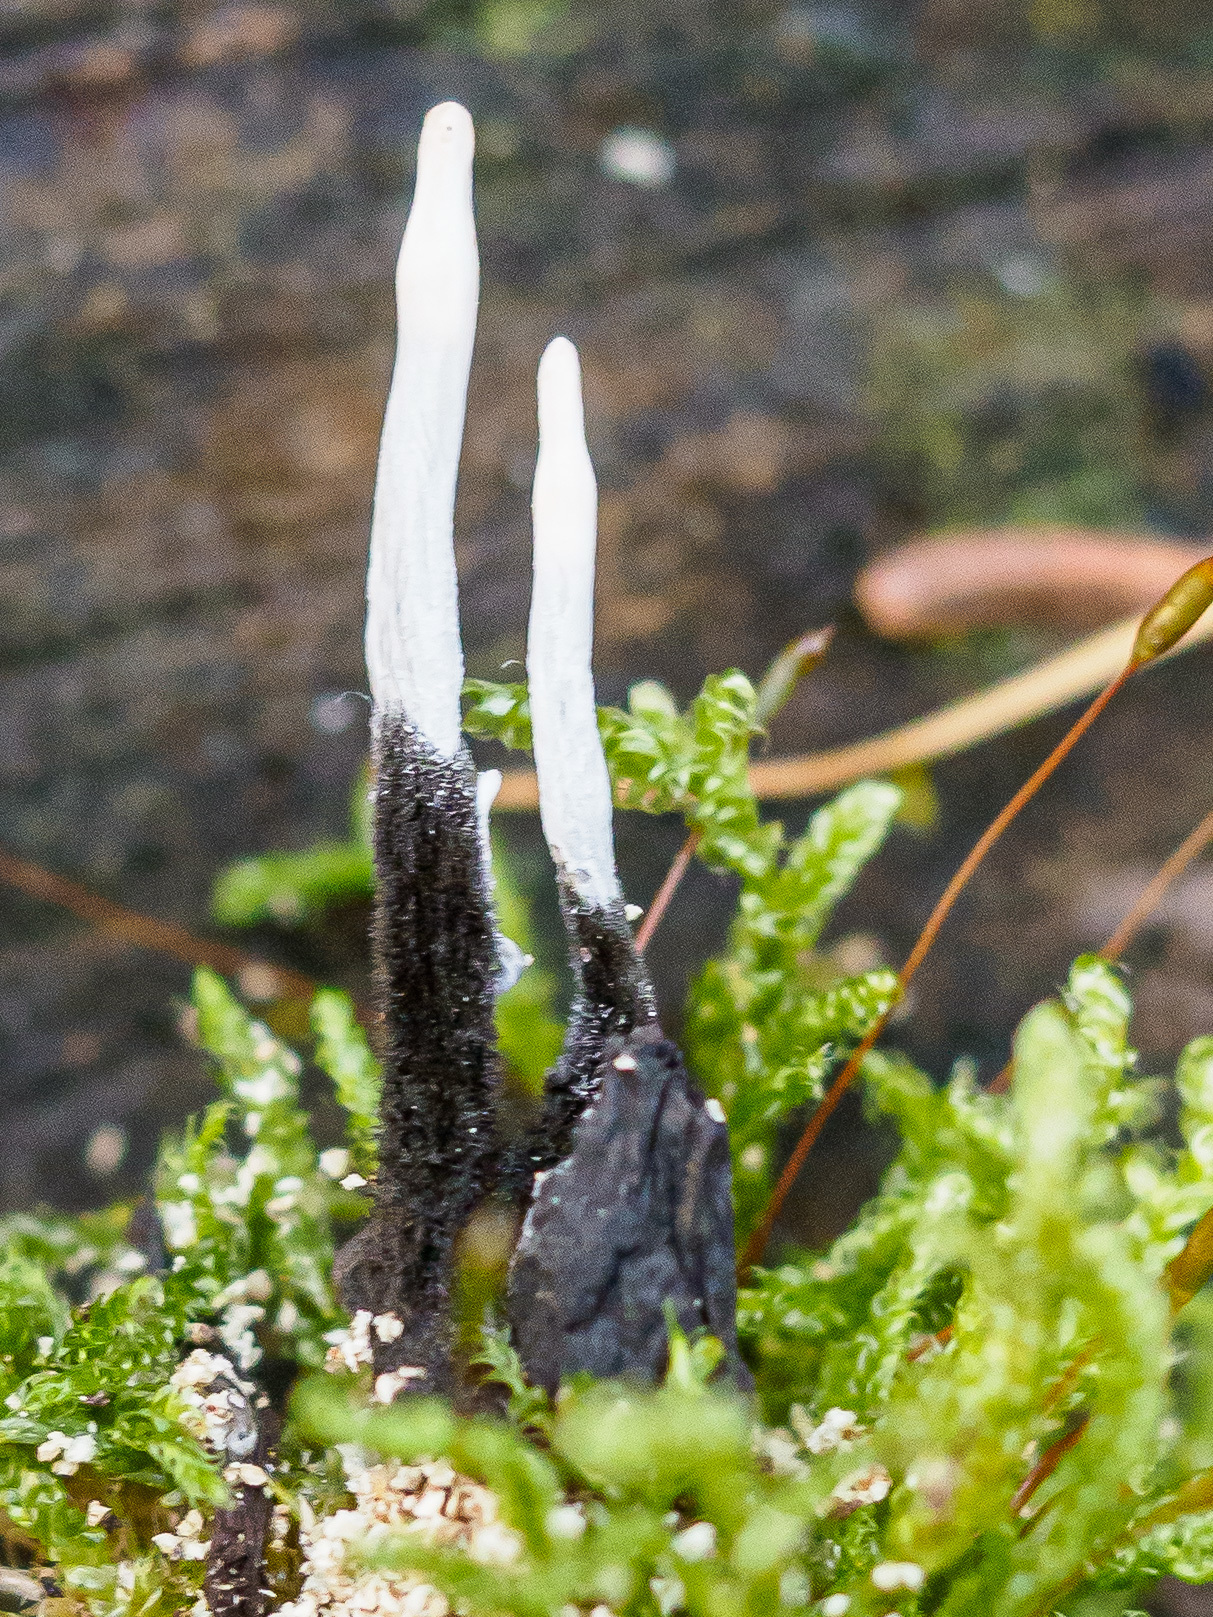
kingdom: Fungi
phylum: Ascomycota
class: Sordariomycetes
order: Xylariales
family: Xylariaceae
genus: Xylaria
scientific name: Xylaria hypoxylon
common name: Candle-snuff fungus
